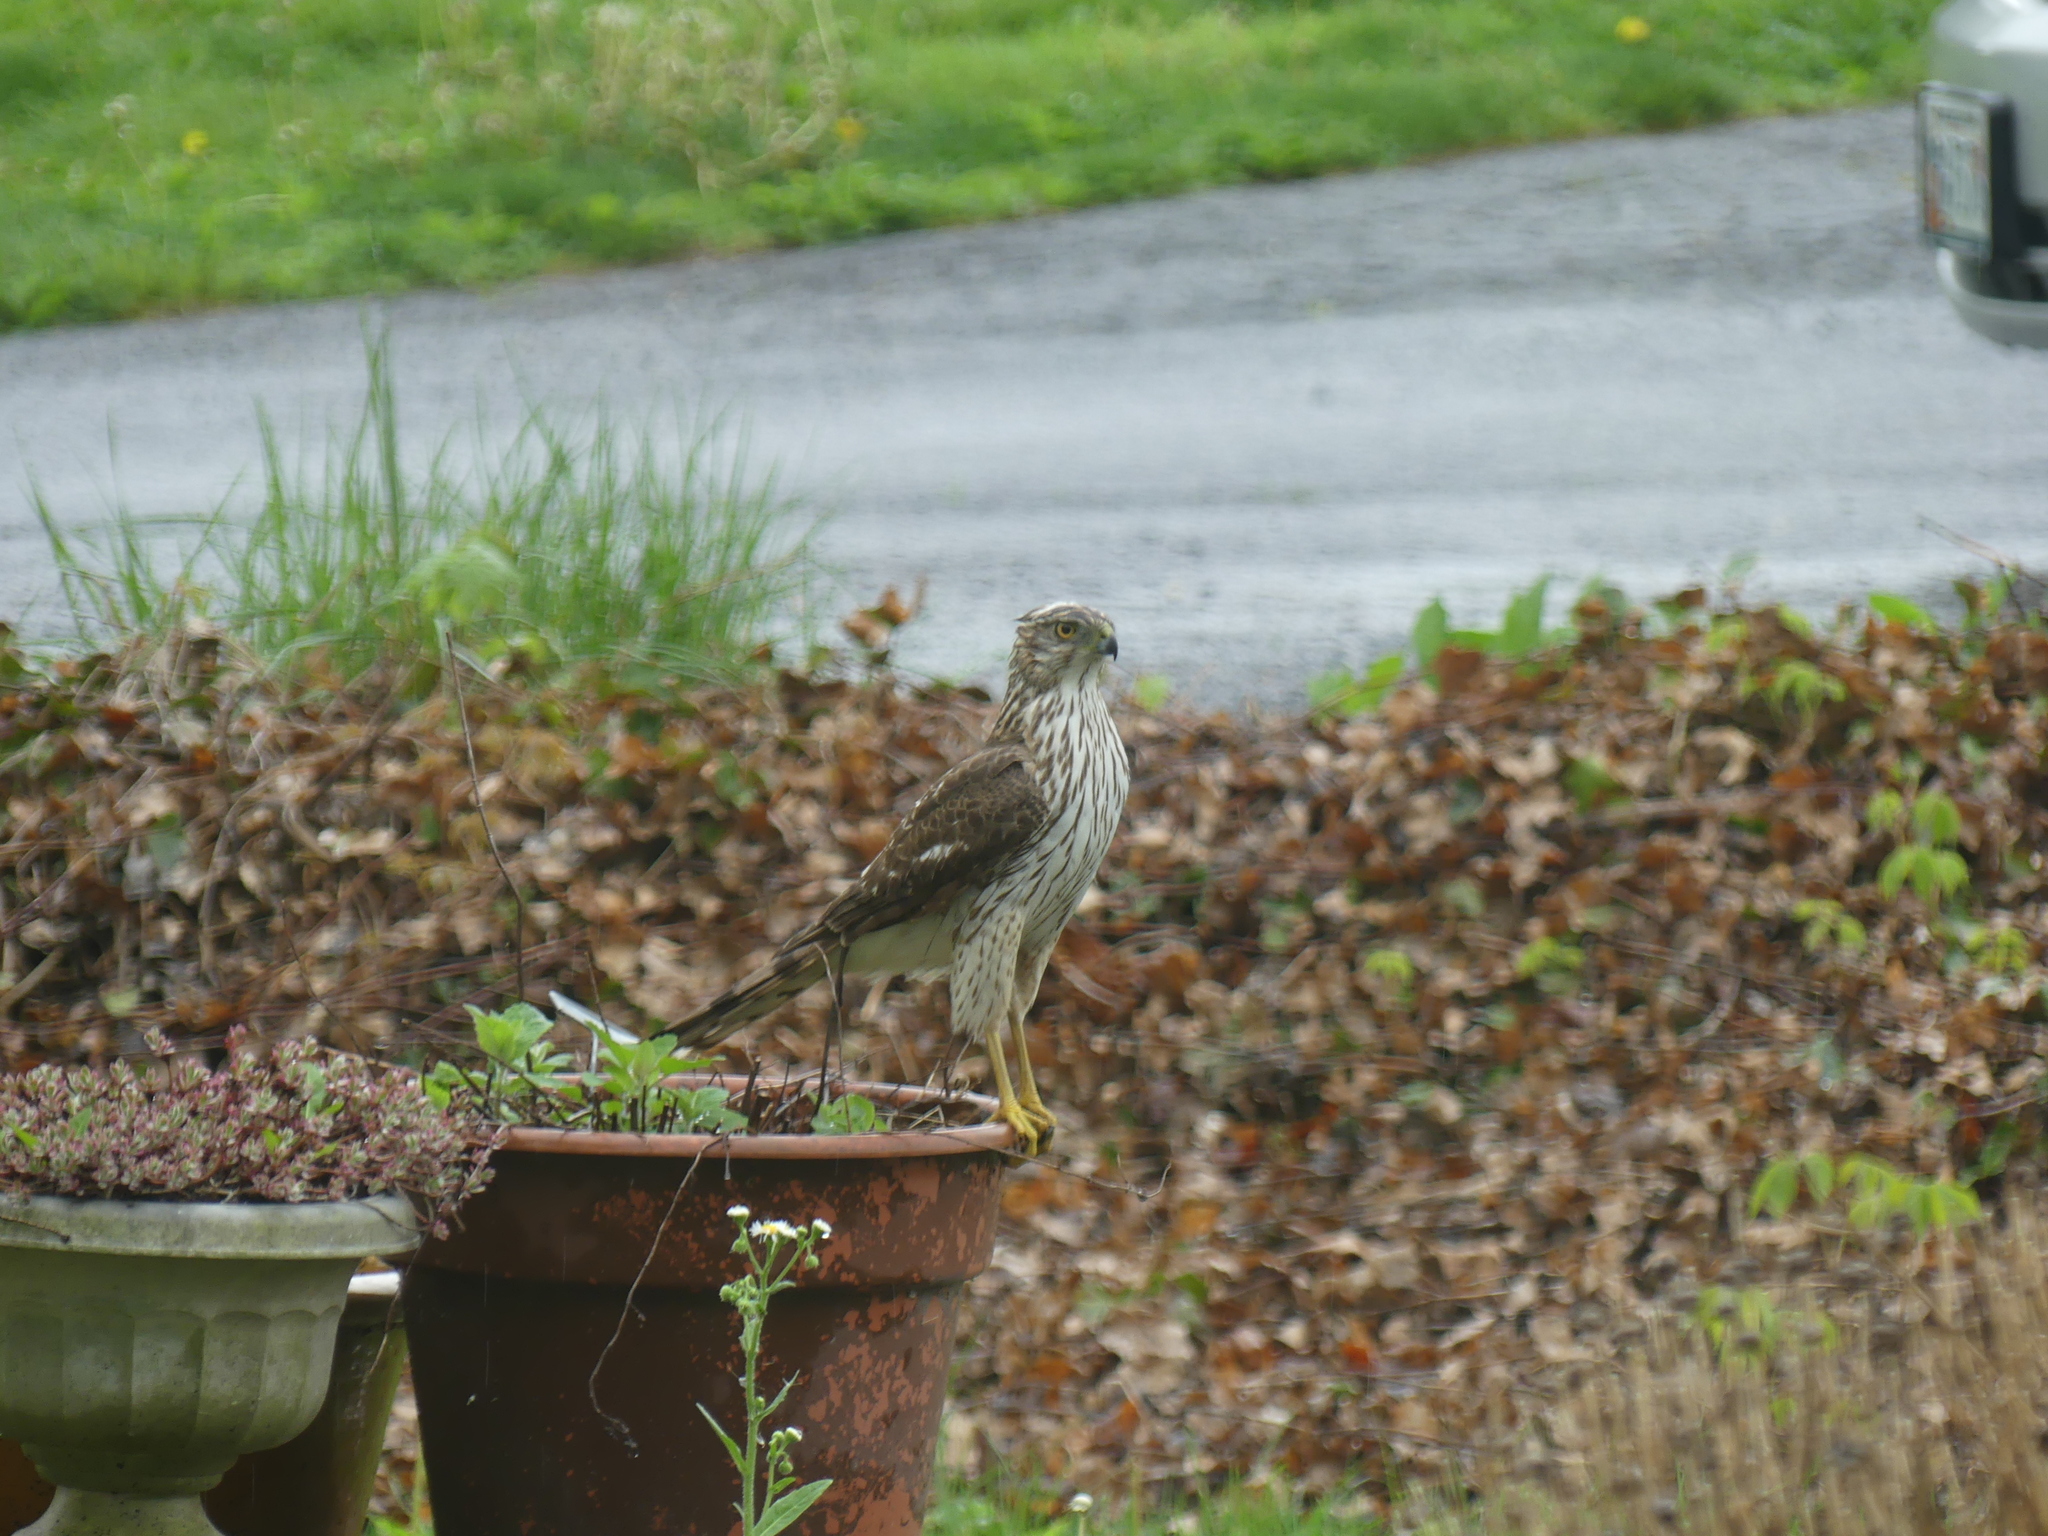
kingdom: Animalia
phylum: Chordata
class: Aves
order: Accipitriformes
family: Accipitridae
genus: Accipiter
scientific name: Accipiter cooperii
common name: Cooper's hawk
